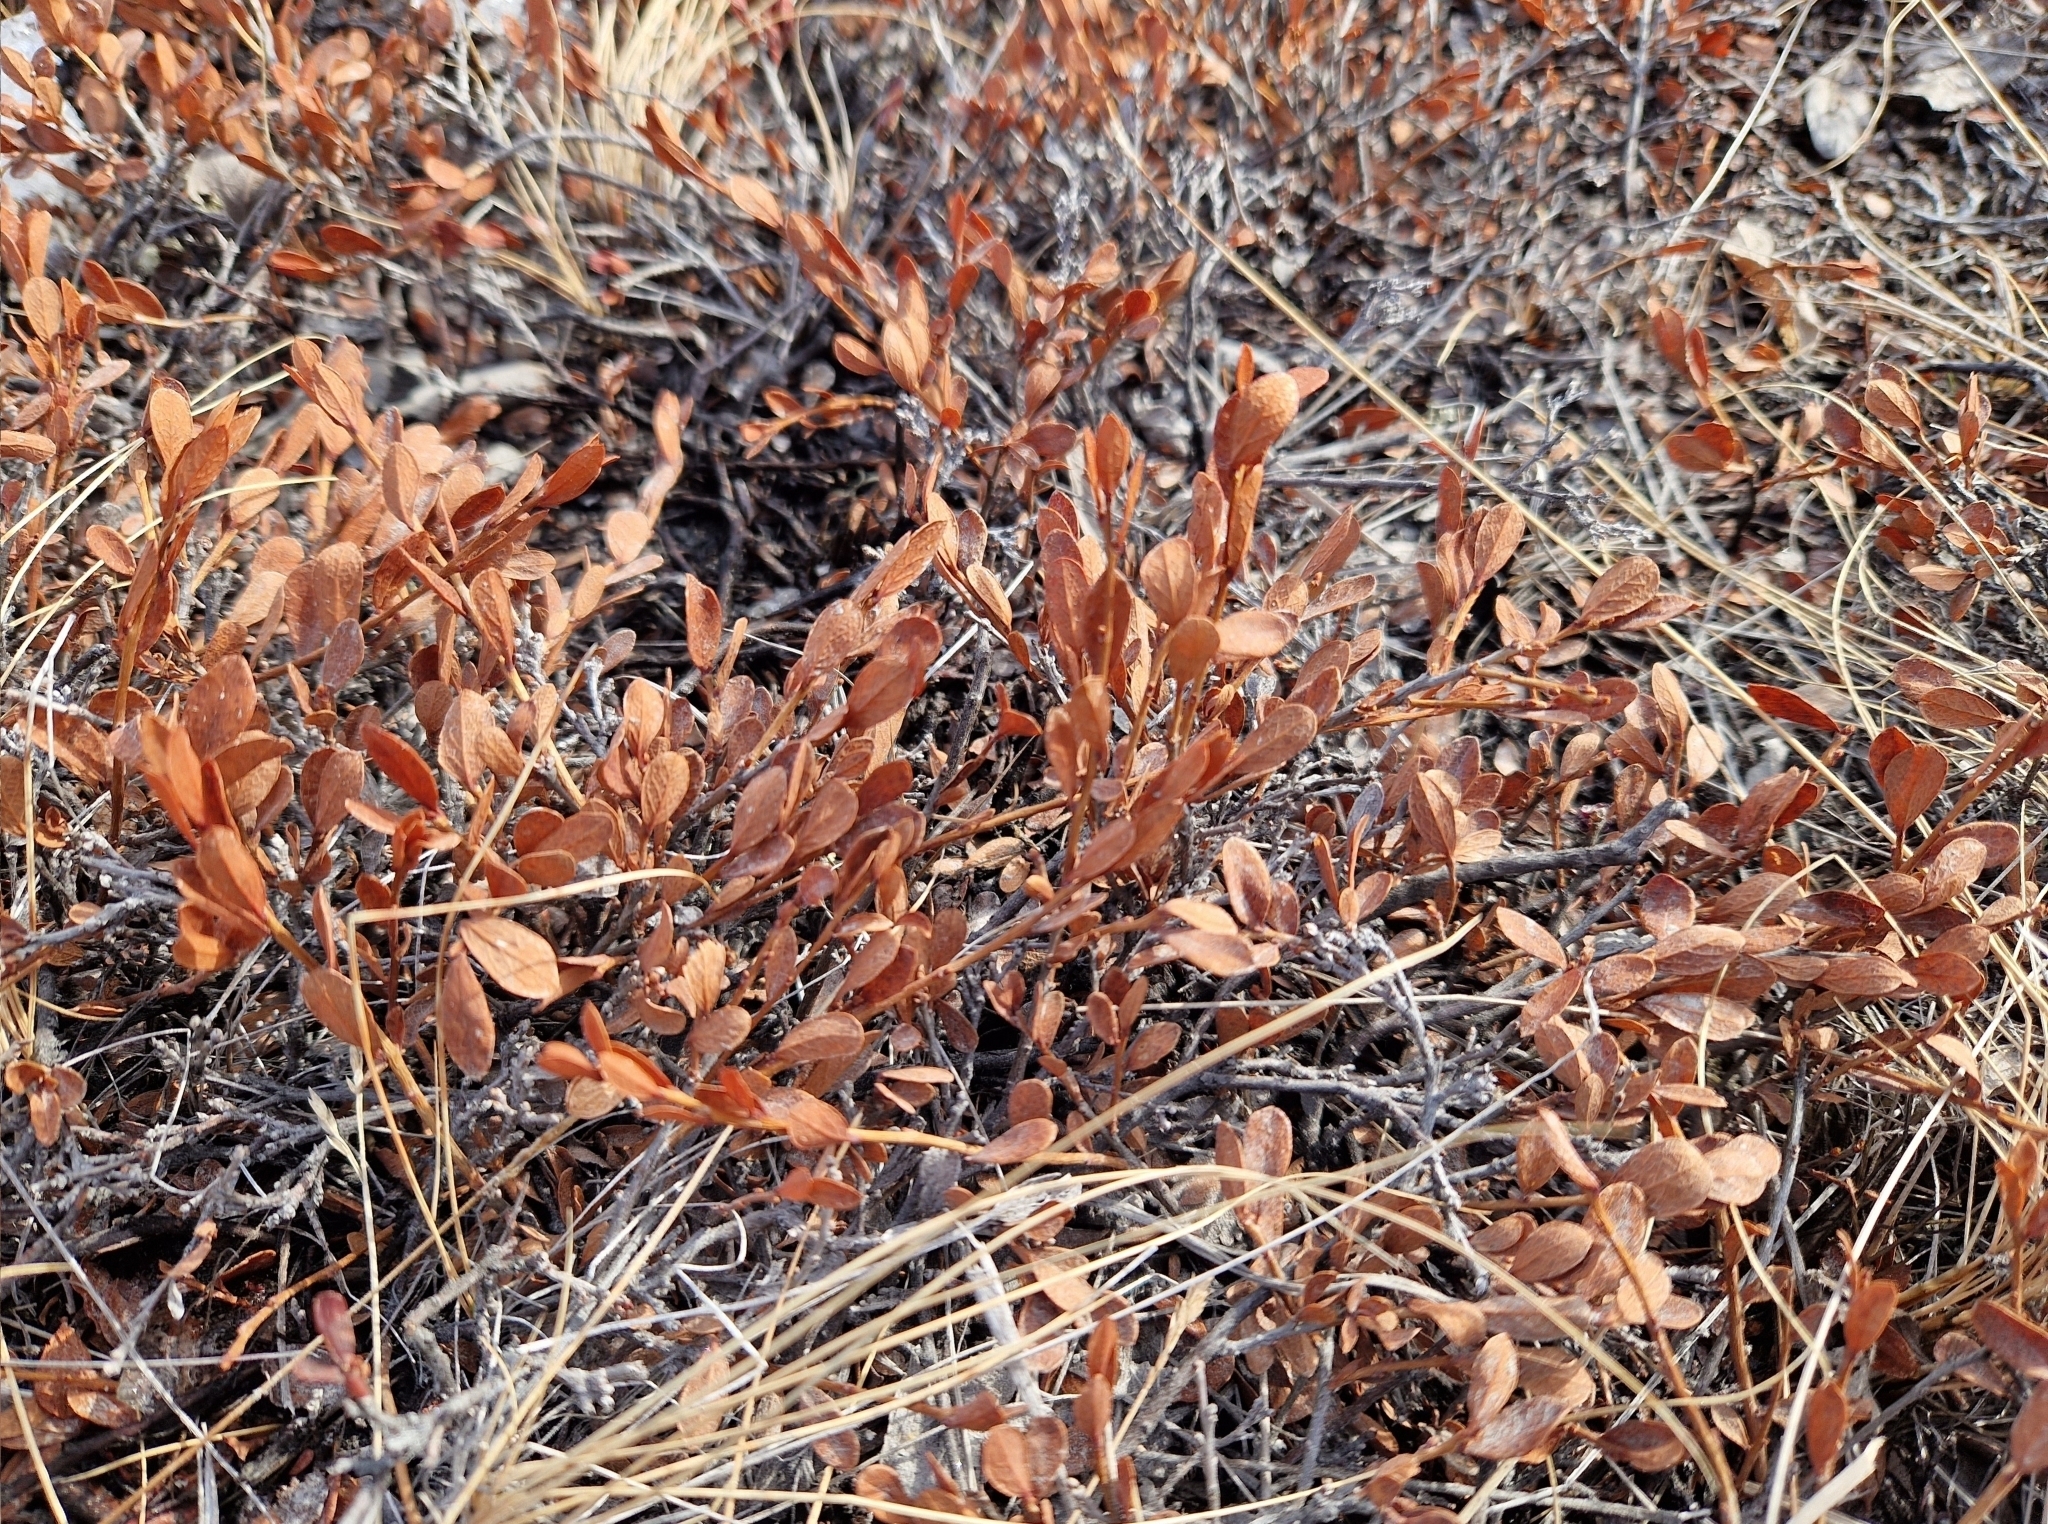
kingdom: Plantae
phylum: Tracheophyta
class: Magnoliopsida
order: Ericales
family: Ericaceae
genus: Vaccinium
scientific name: Vaccinium uliginosum
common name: Bog bilberry
